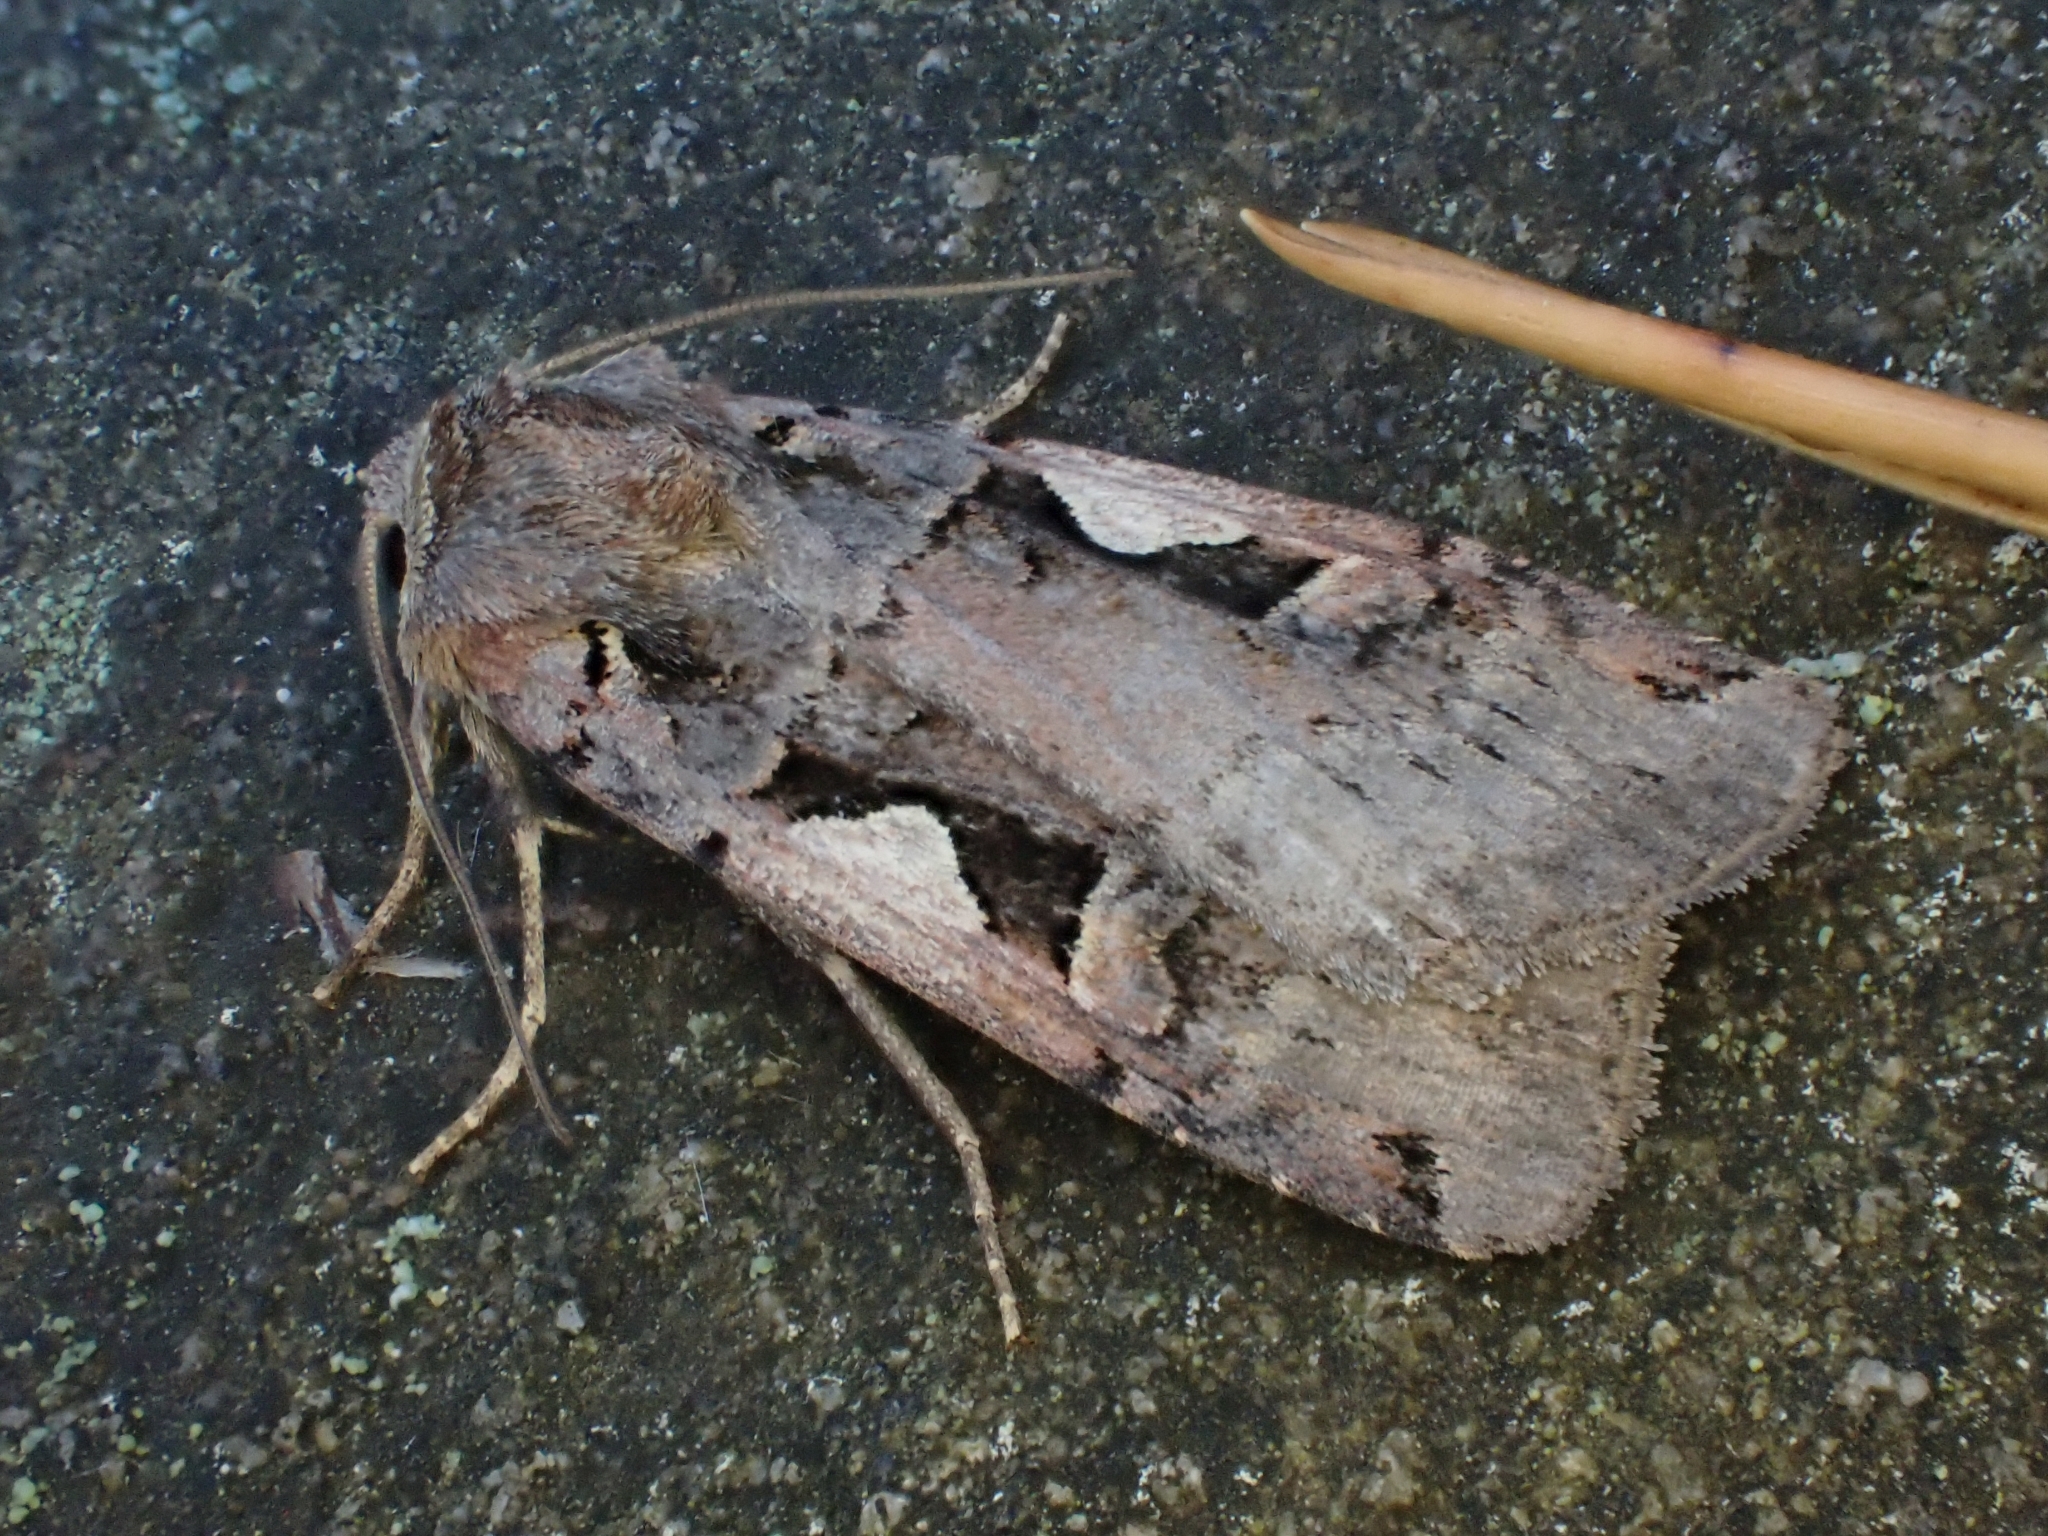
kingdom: Animalia
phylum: Arthropoda
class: Insecta
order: Lepidoptera
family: Noctuidae
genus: Xestia
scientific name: Xestia c-nigrum
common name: Setaceous hebrew character
